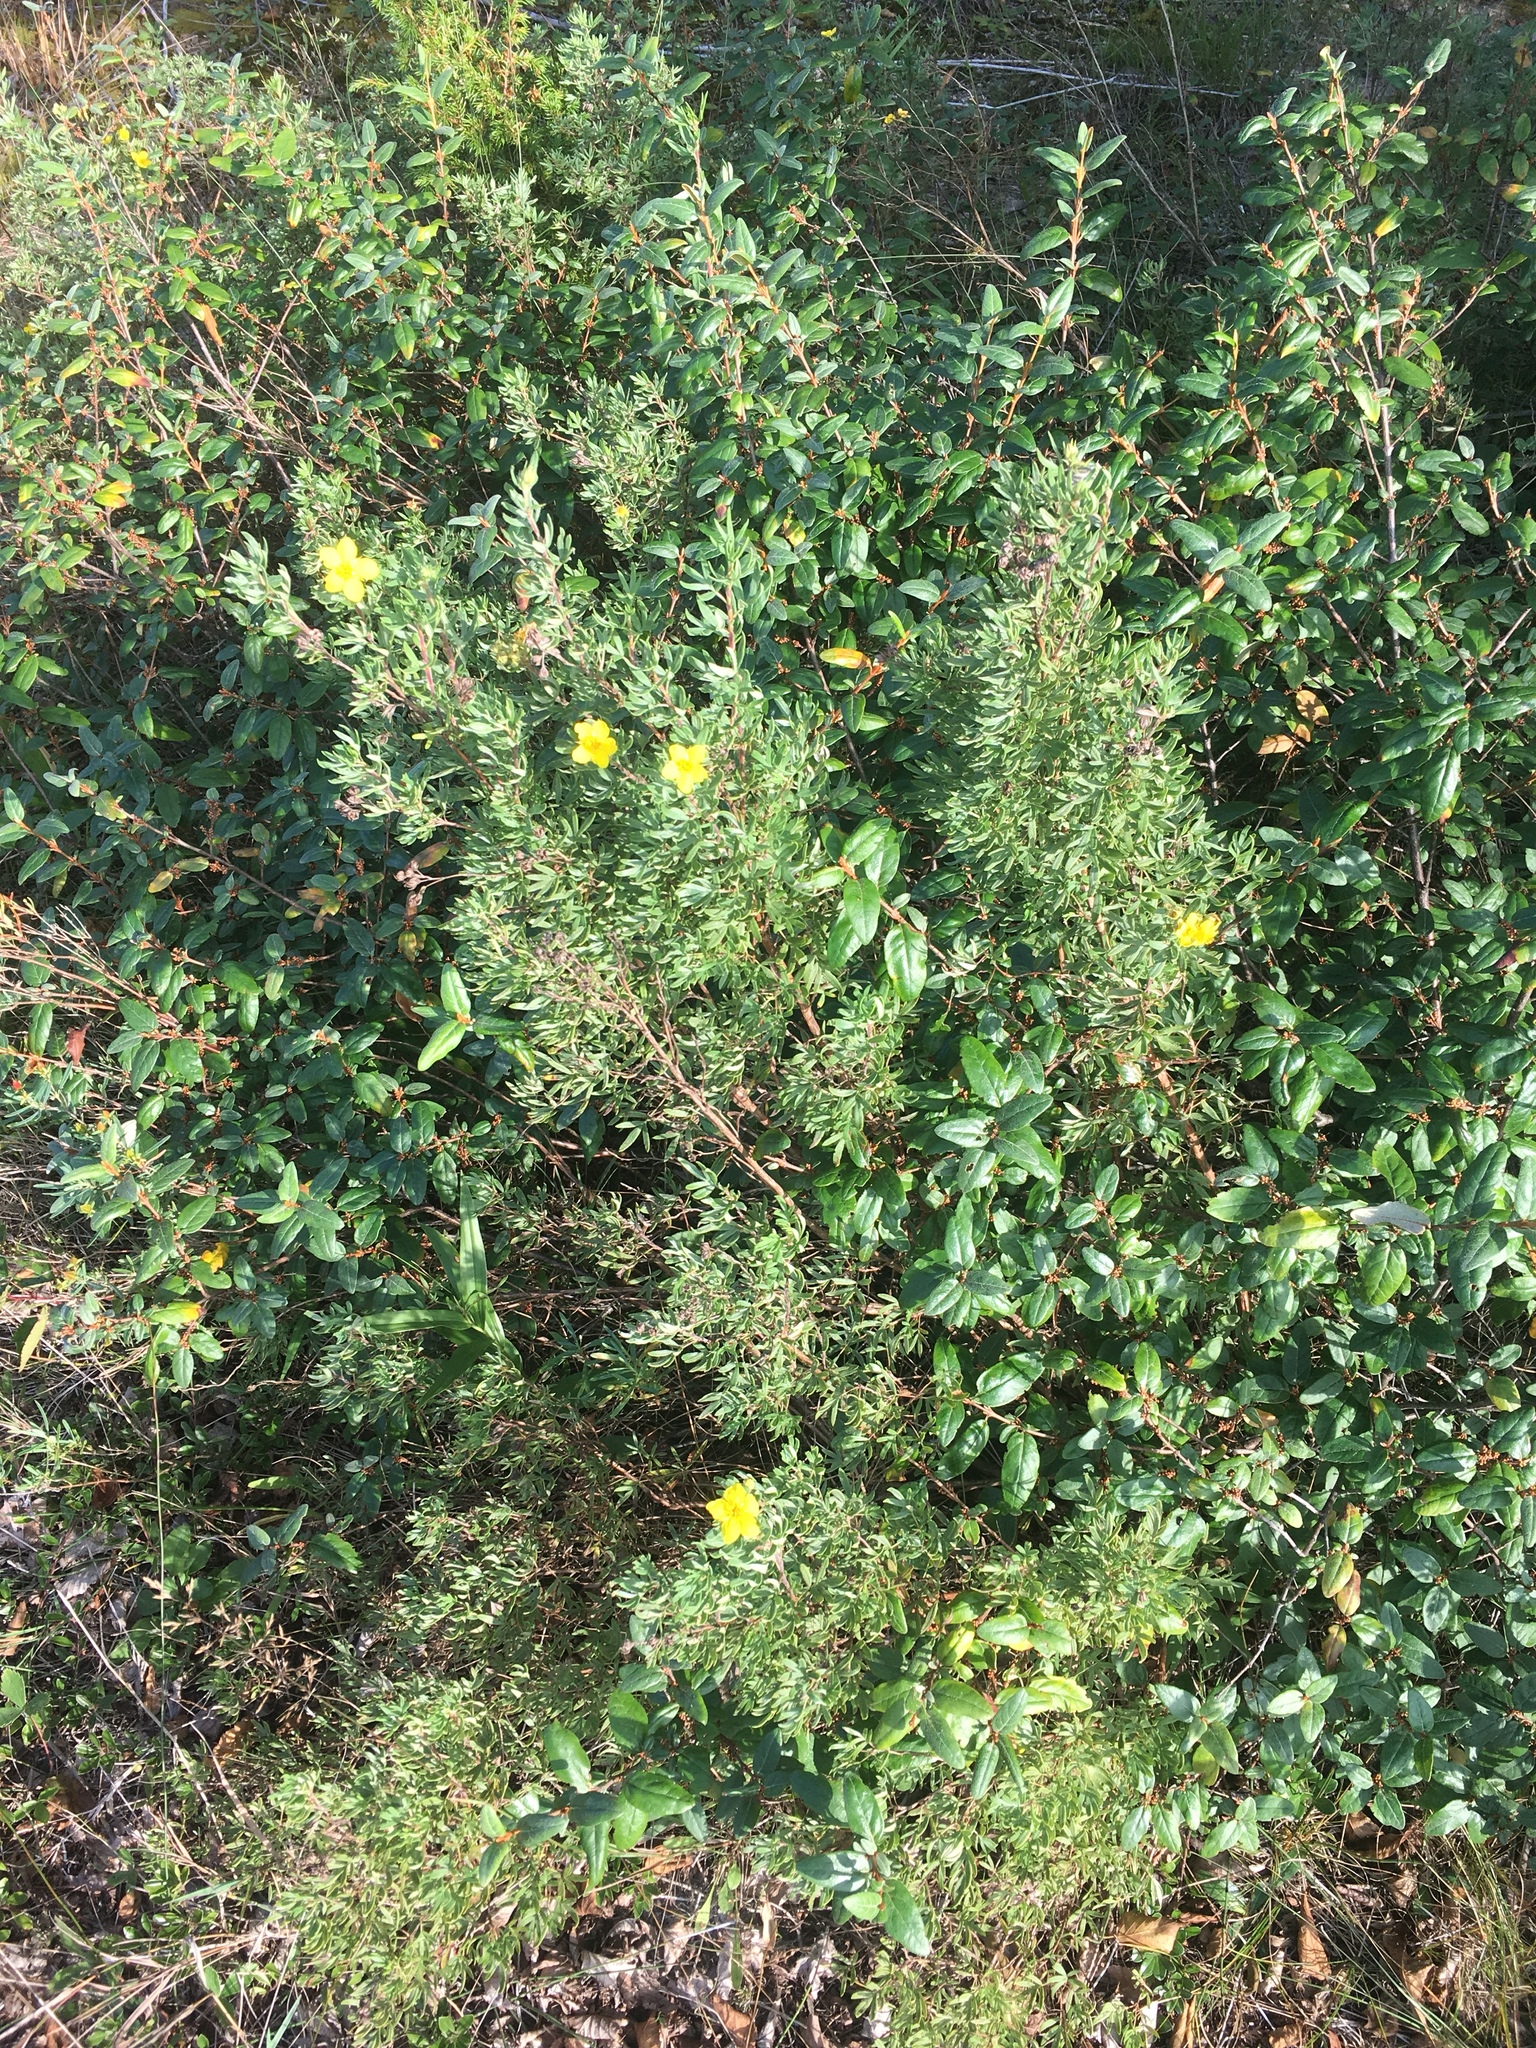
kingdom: Plantae
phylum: Tracheophyta
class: Magnoliopsida
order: Rosales
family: Rosaceae
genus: Dasiphora
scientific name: Dasiphora fruticosa
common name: Shrubby cinquefoil
